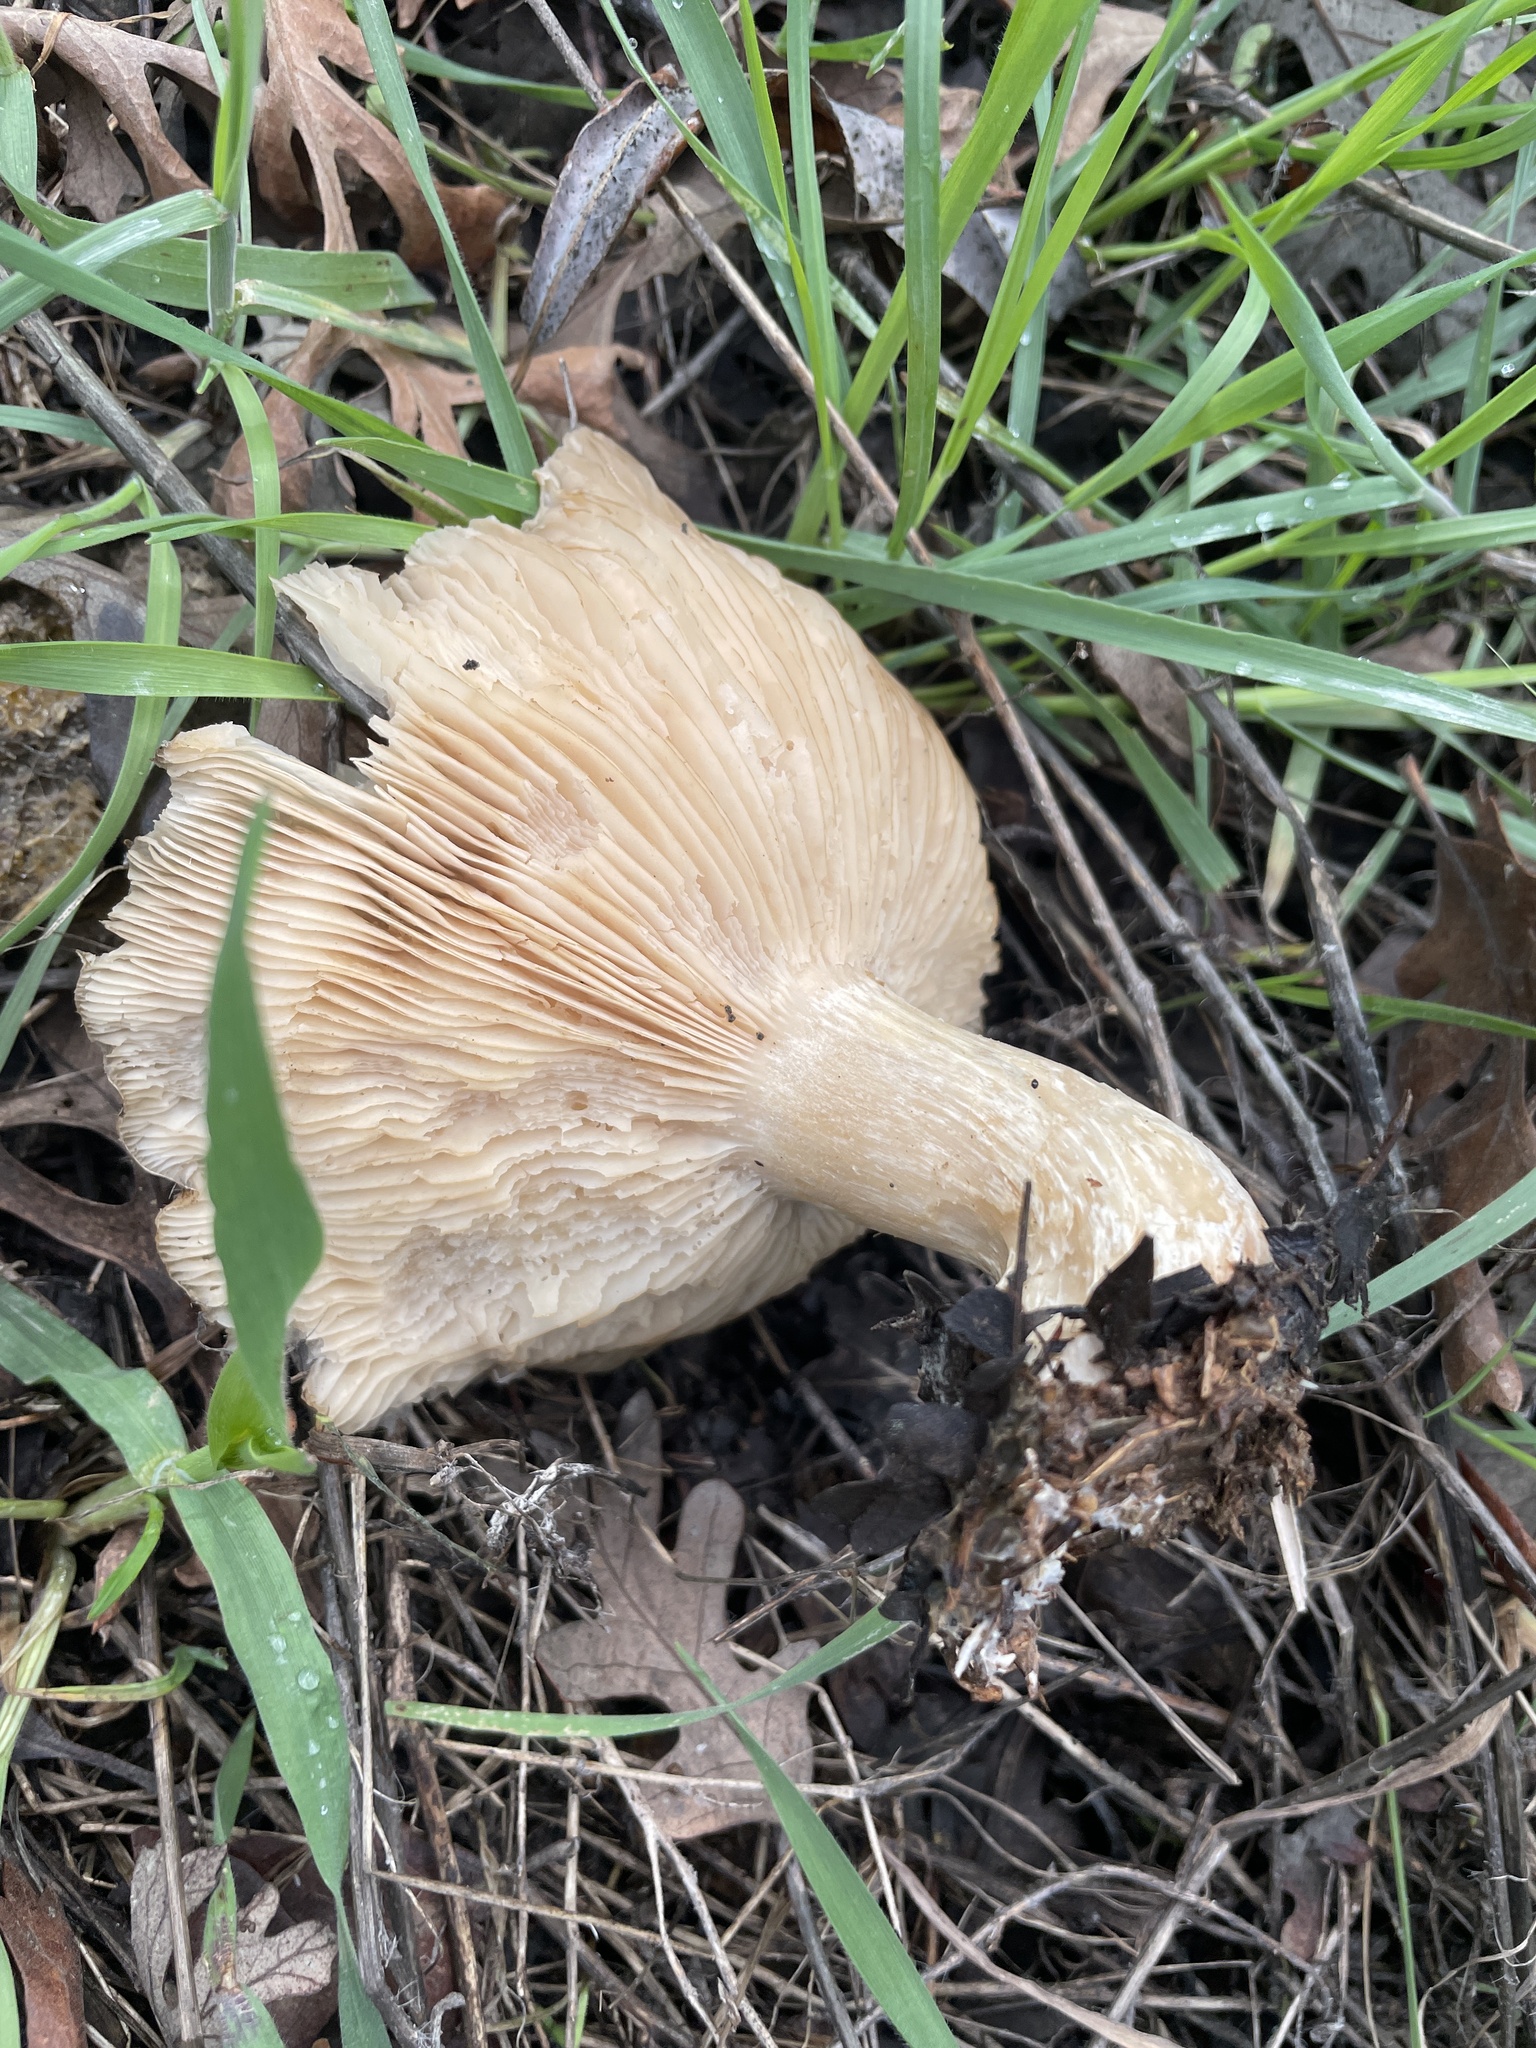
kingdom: Fungi
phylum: Basidiomycota
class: Agaricomycetes
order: Agaricales
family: Tricholomataceae
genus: Collybia
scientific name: Collybia
